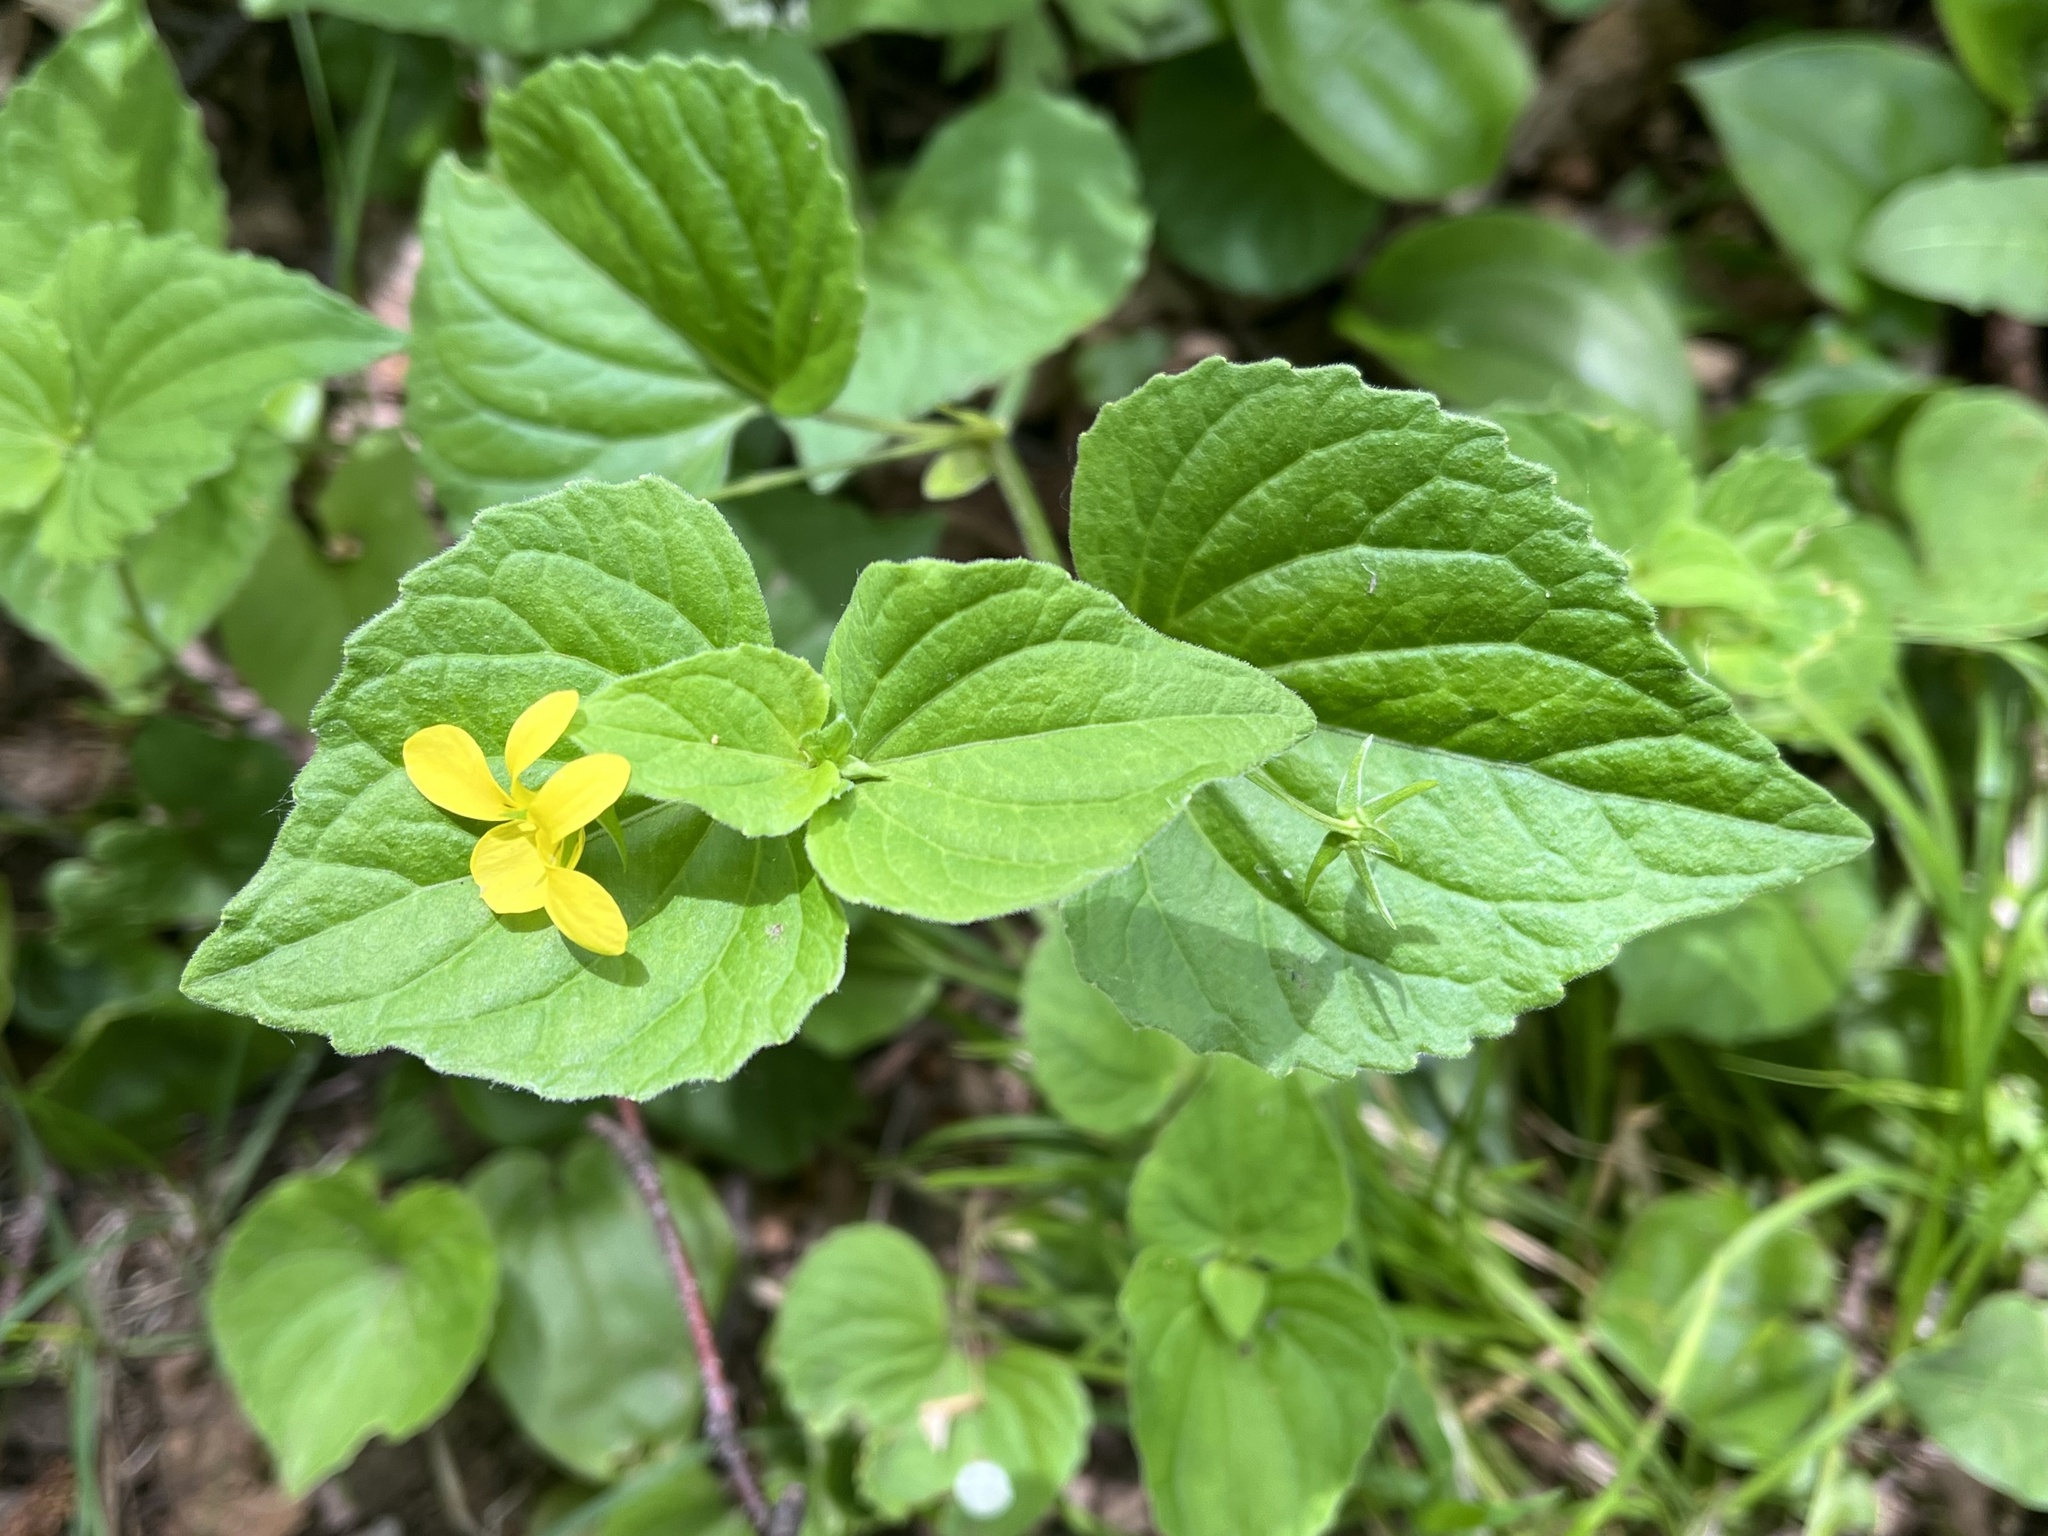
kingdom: Plantae
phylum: Tracheophyta
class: Magnoliopsida
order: Malpighiales
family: Violaceae
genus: Viola
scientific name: Viola eriocarpa
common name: Smooth yellow violet
